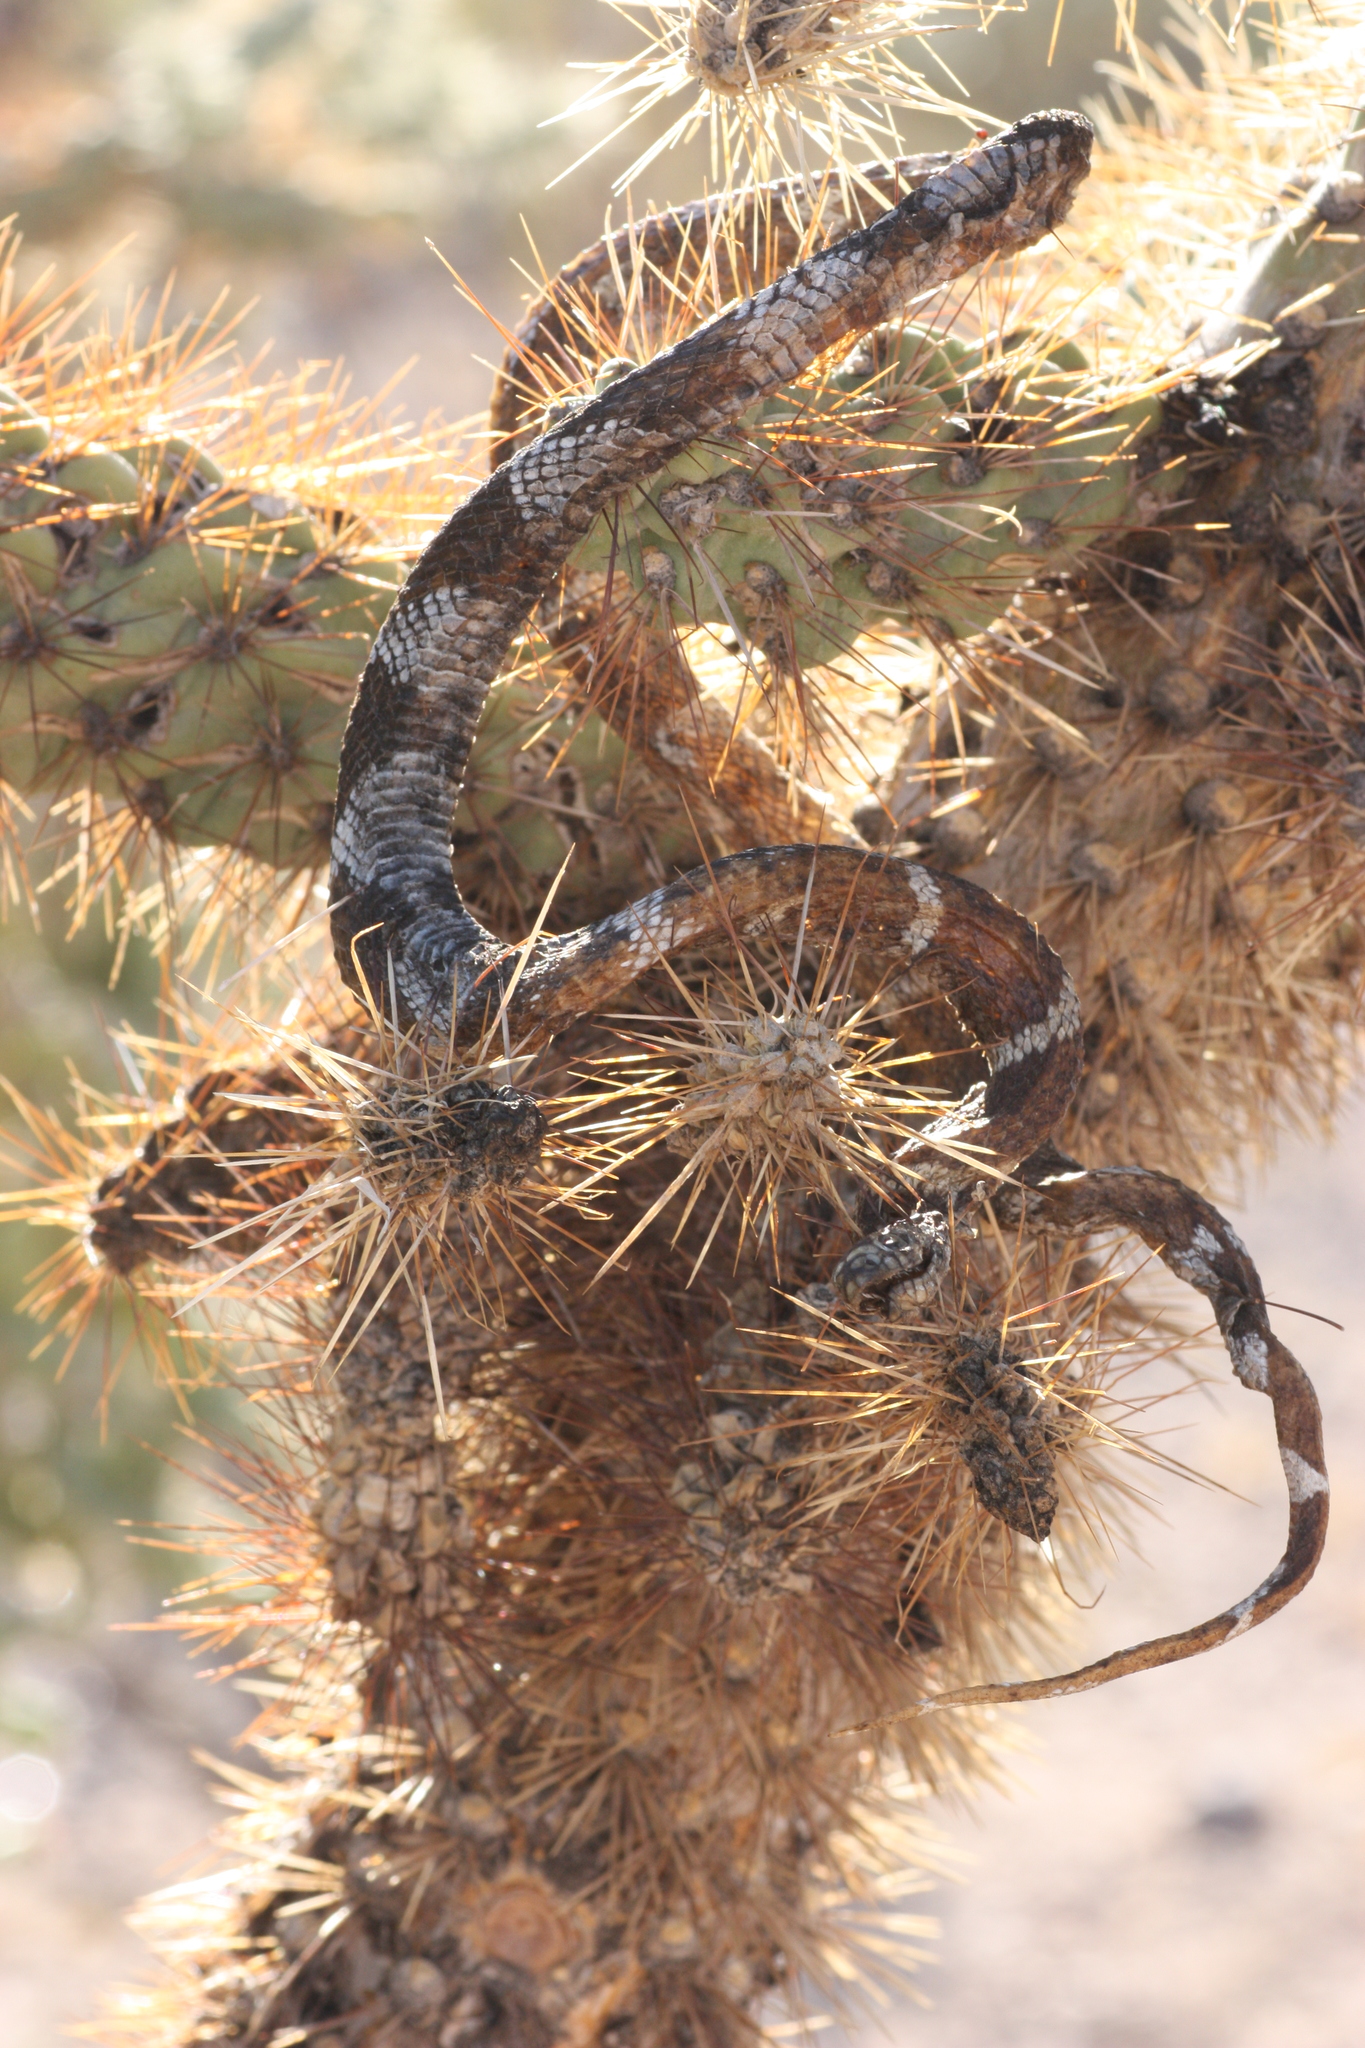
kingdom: Animalia
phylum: Chordata
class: Squamata
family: Colubridae
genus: Lampropeltis
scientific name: Lampropeltis californiae
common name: California kingsnake
